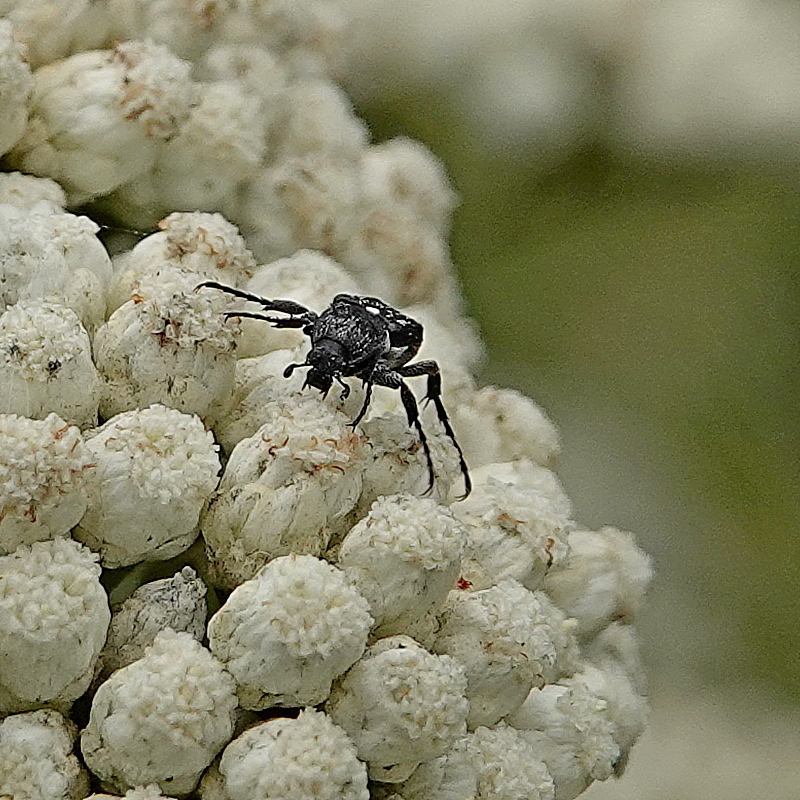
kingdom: Animalia
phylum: Arthropoda
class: Insecta
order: Coleoptera
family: Scarabaeidae
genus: Microvalgus
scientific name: Microvalgus nigrinus
